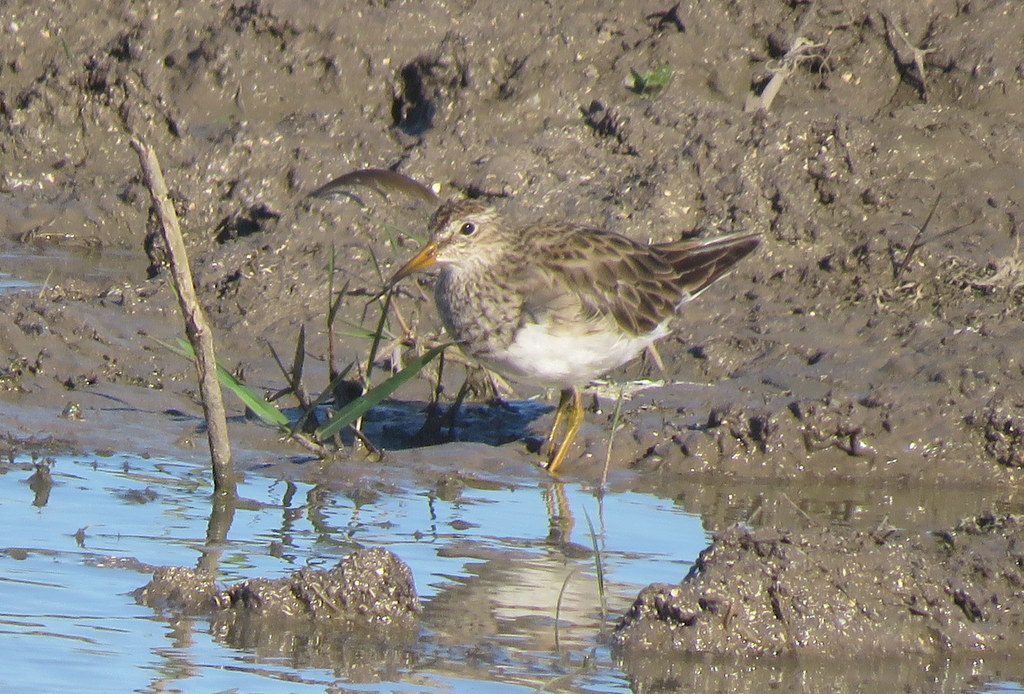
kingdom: Animalia
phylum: Chordata
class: Aves
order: Charadriiformes
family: Scolopacidae
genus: Calidris
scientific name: Calidris melanotos
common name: Pectoral sandpiper
